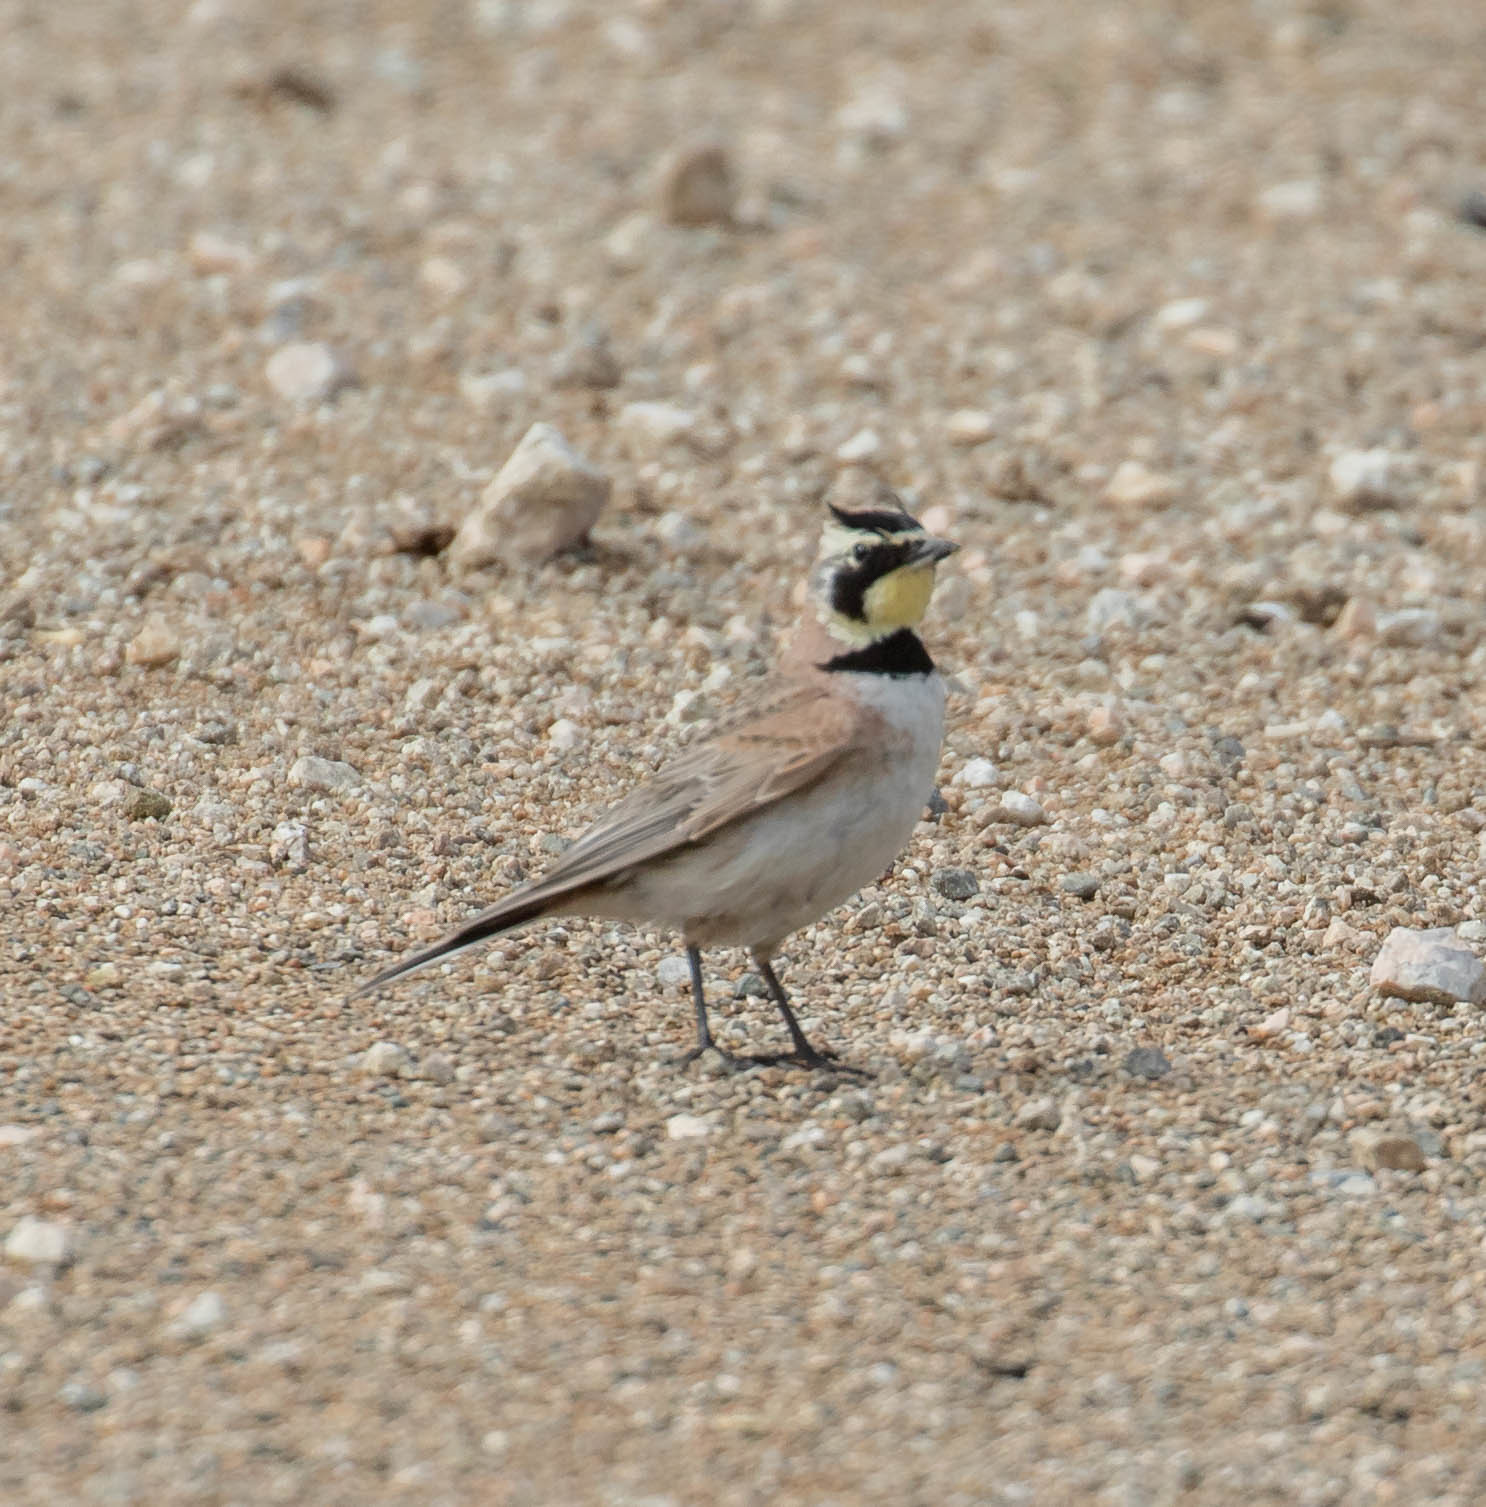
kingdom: Animalia
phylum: Chordata
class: Aves
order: Passeriformes
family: Alaudidae
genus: Eremophila
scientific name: Eremophila alpestris
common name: Horned lark
